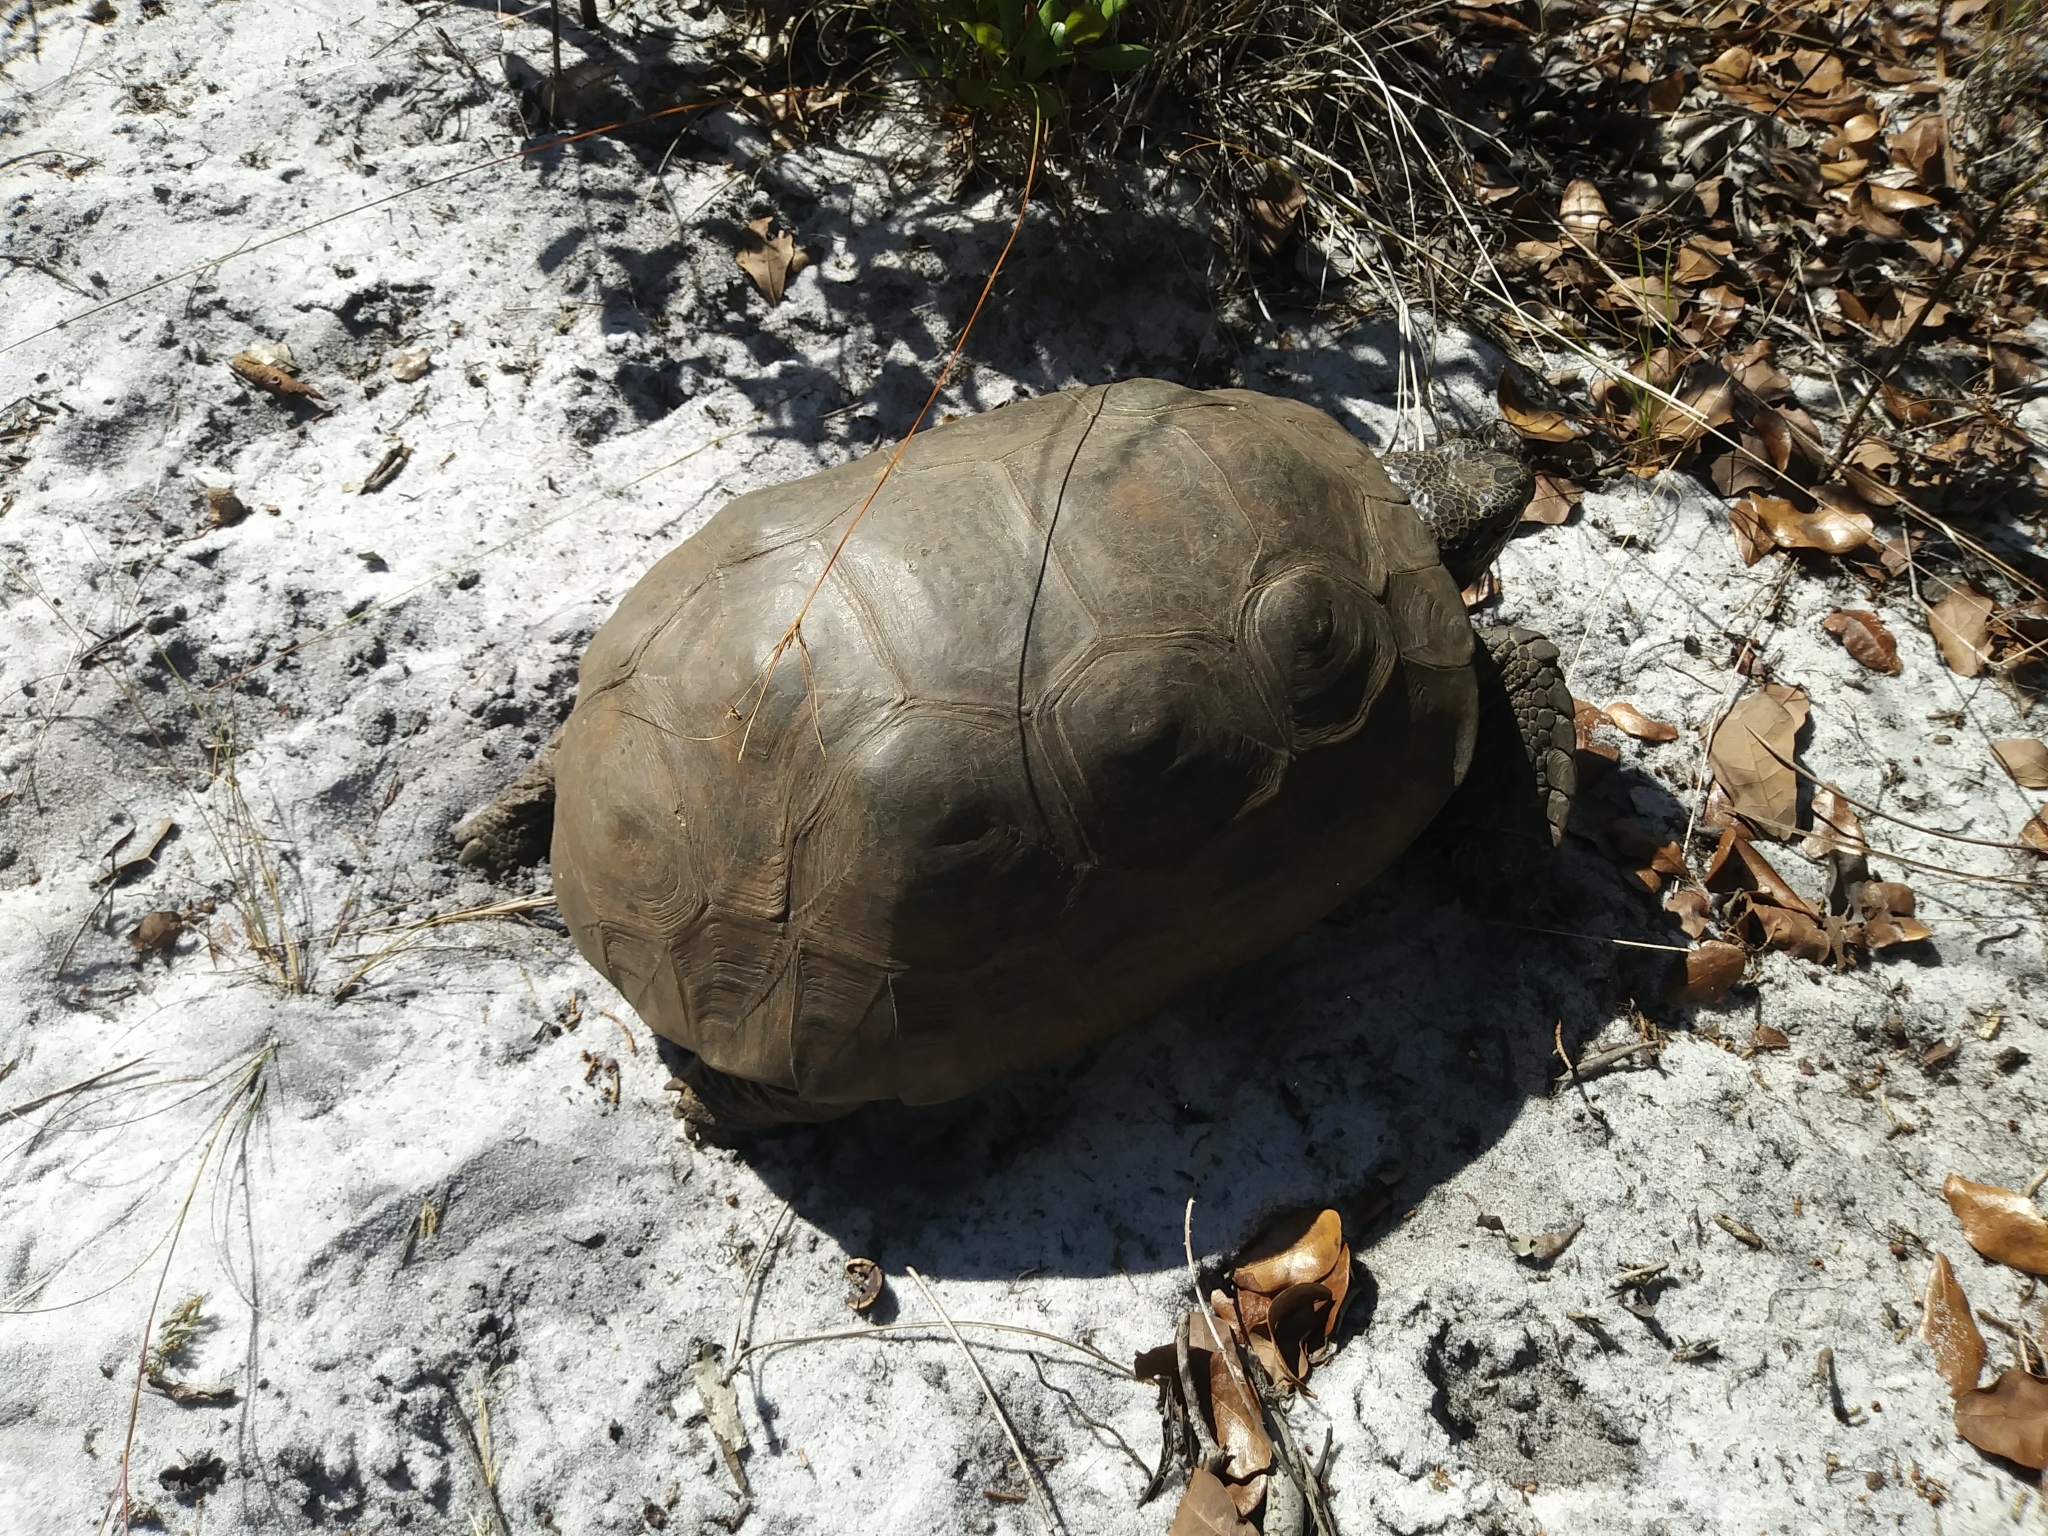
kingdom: Animalia
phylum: Chordata
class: Testudines
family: Testudinidae
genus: Gopherus
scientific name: Gopherus polyphemus
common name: Florida gopher tortoise
